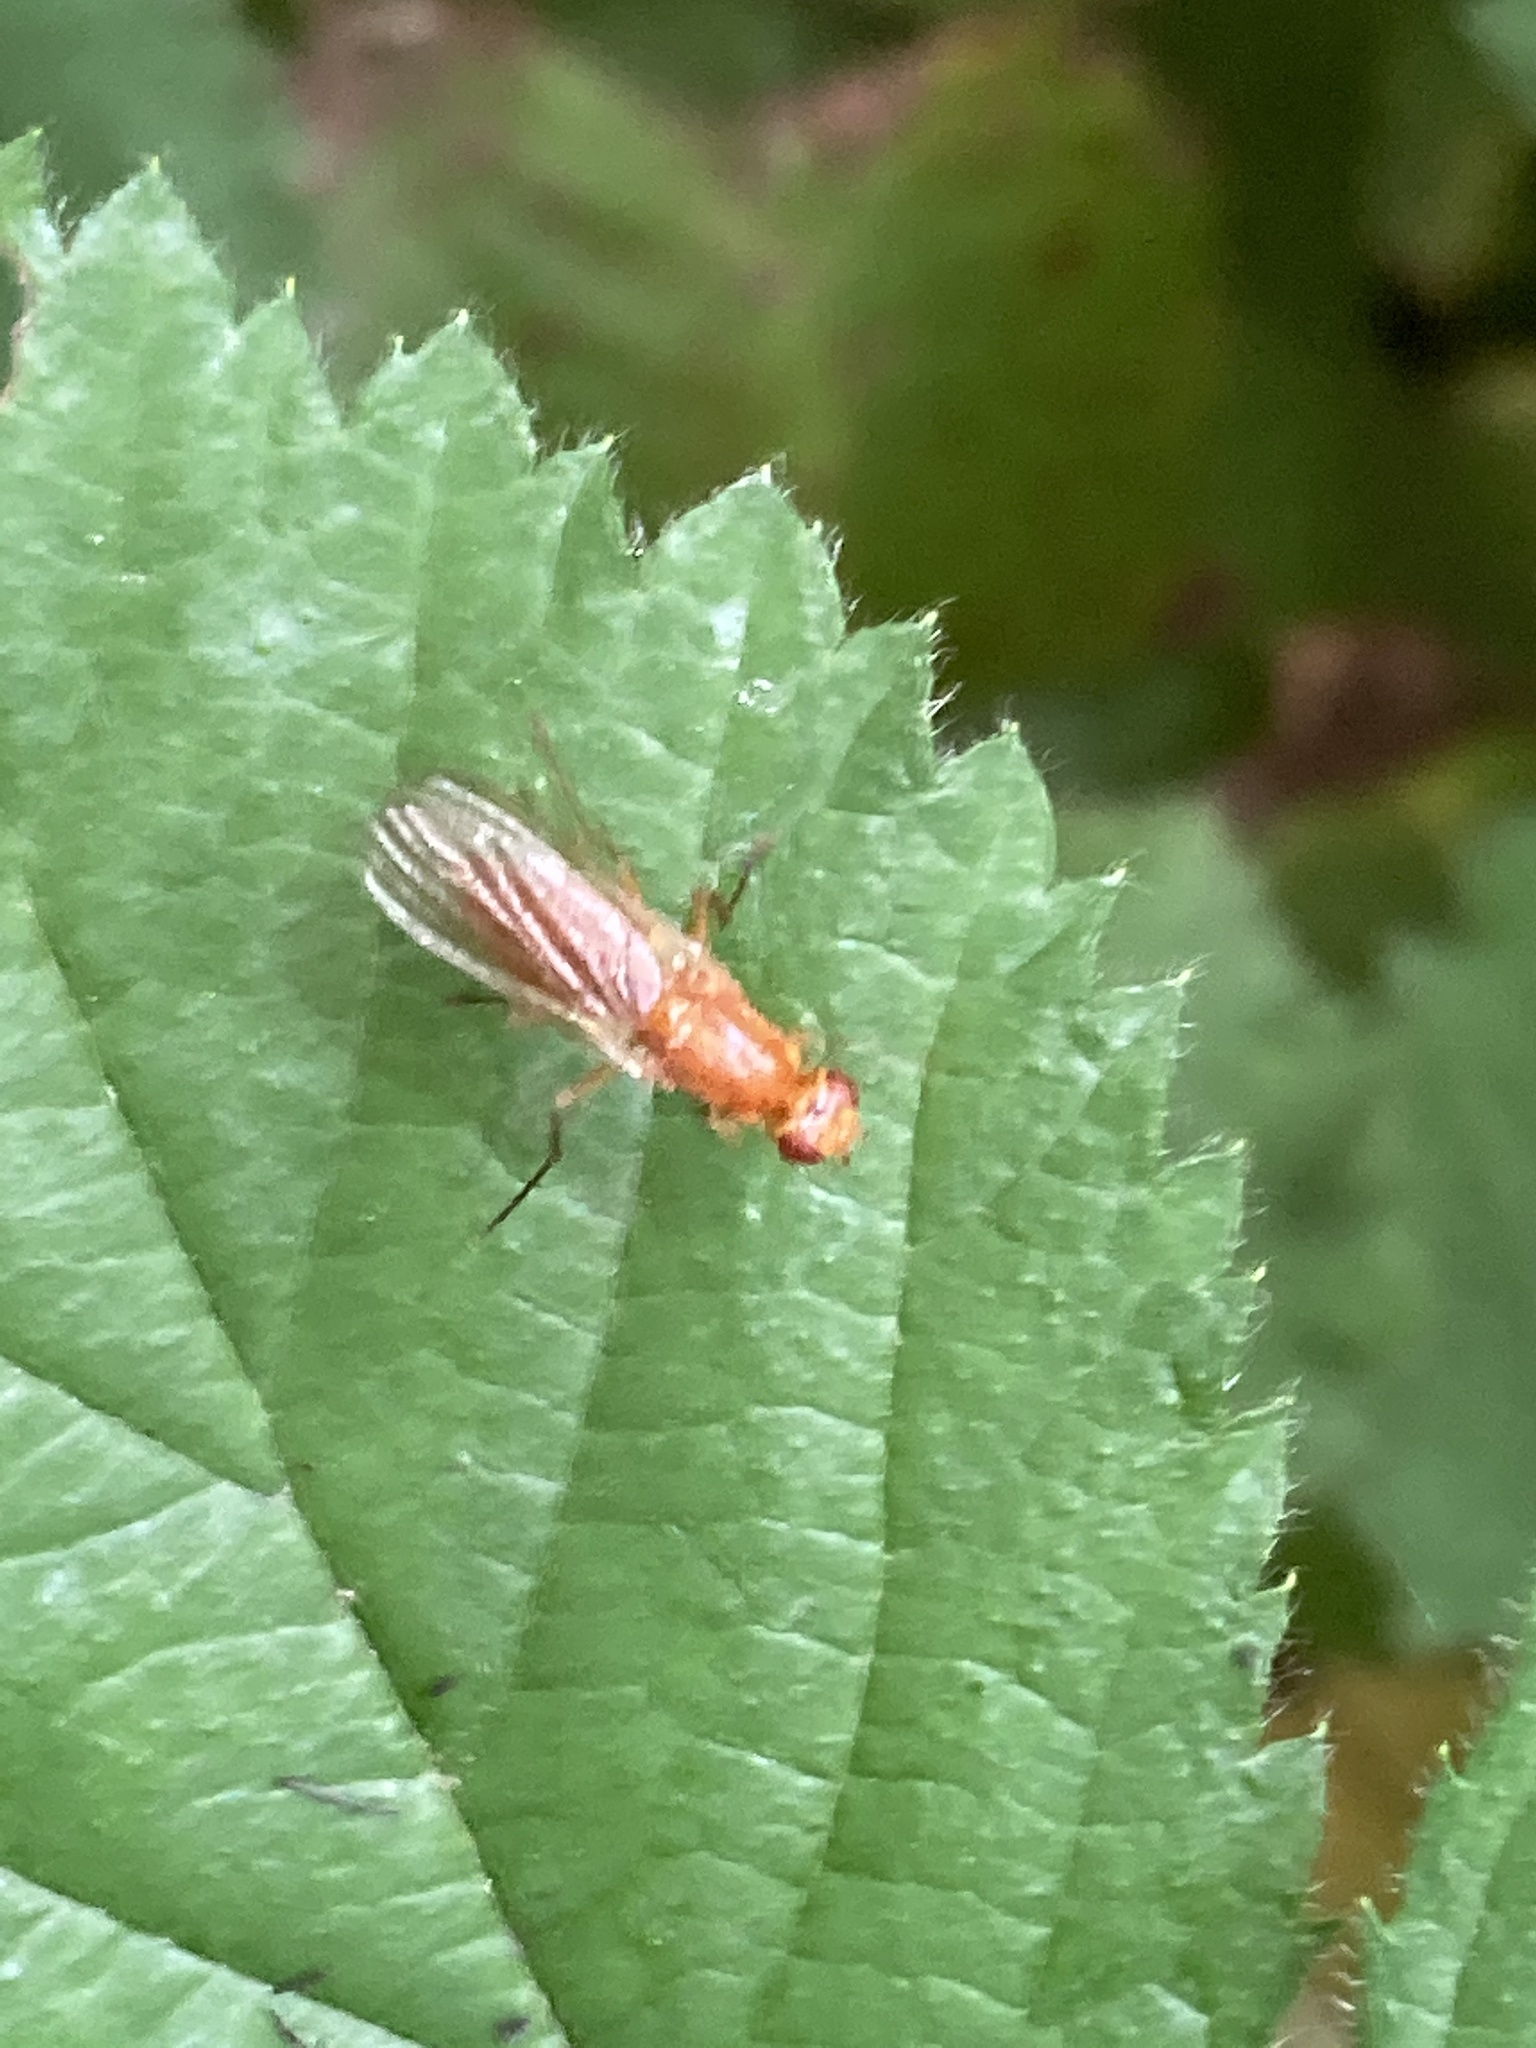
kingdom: Animalia
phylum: Arthropoda
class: Insecta
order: Diptera
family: Psilidae
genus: Psila
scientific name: Psila
